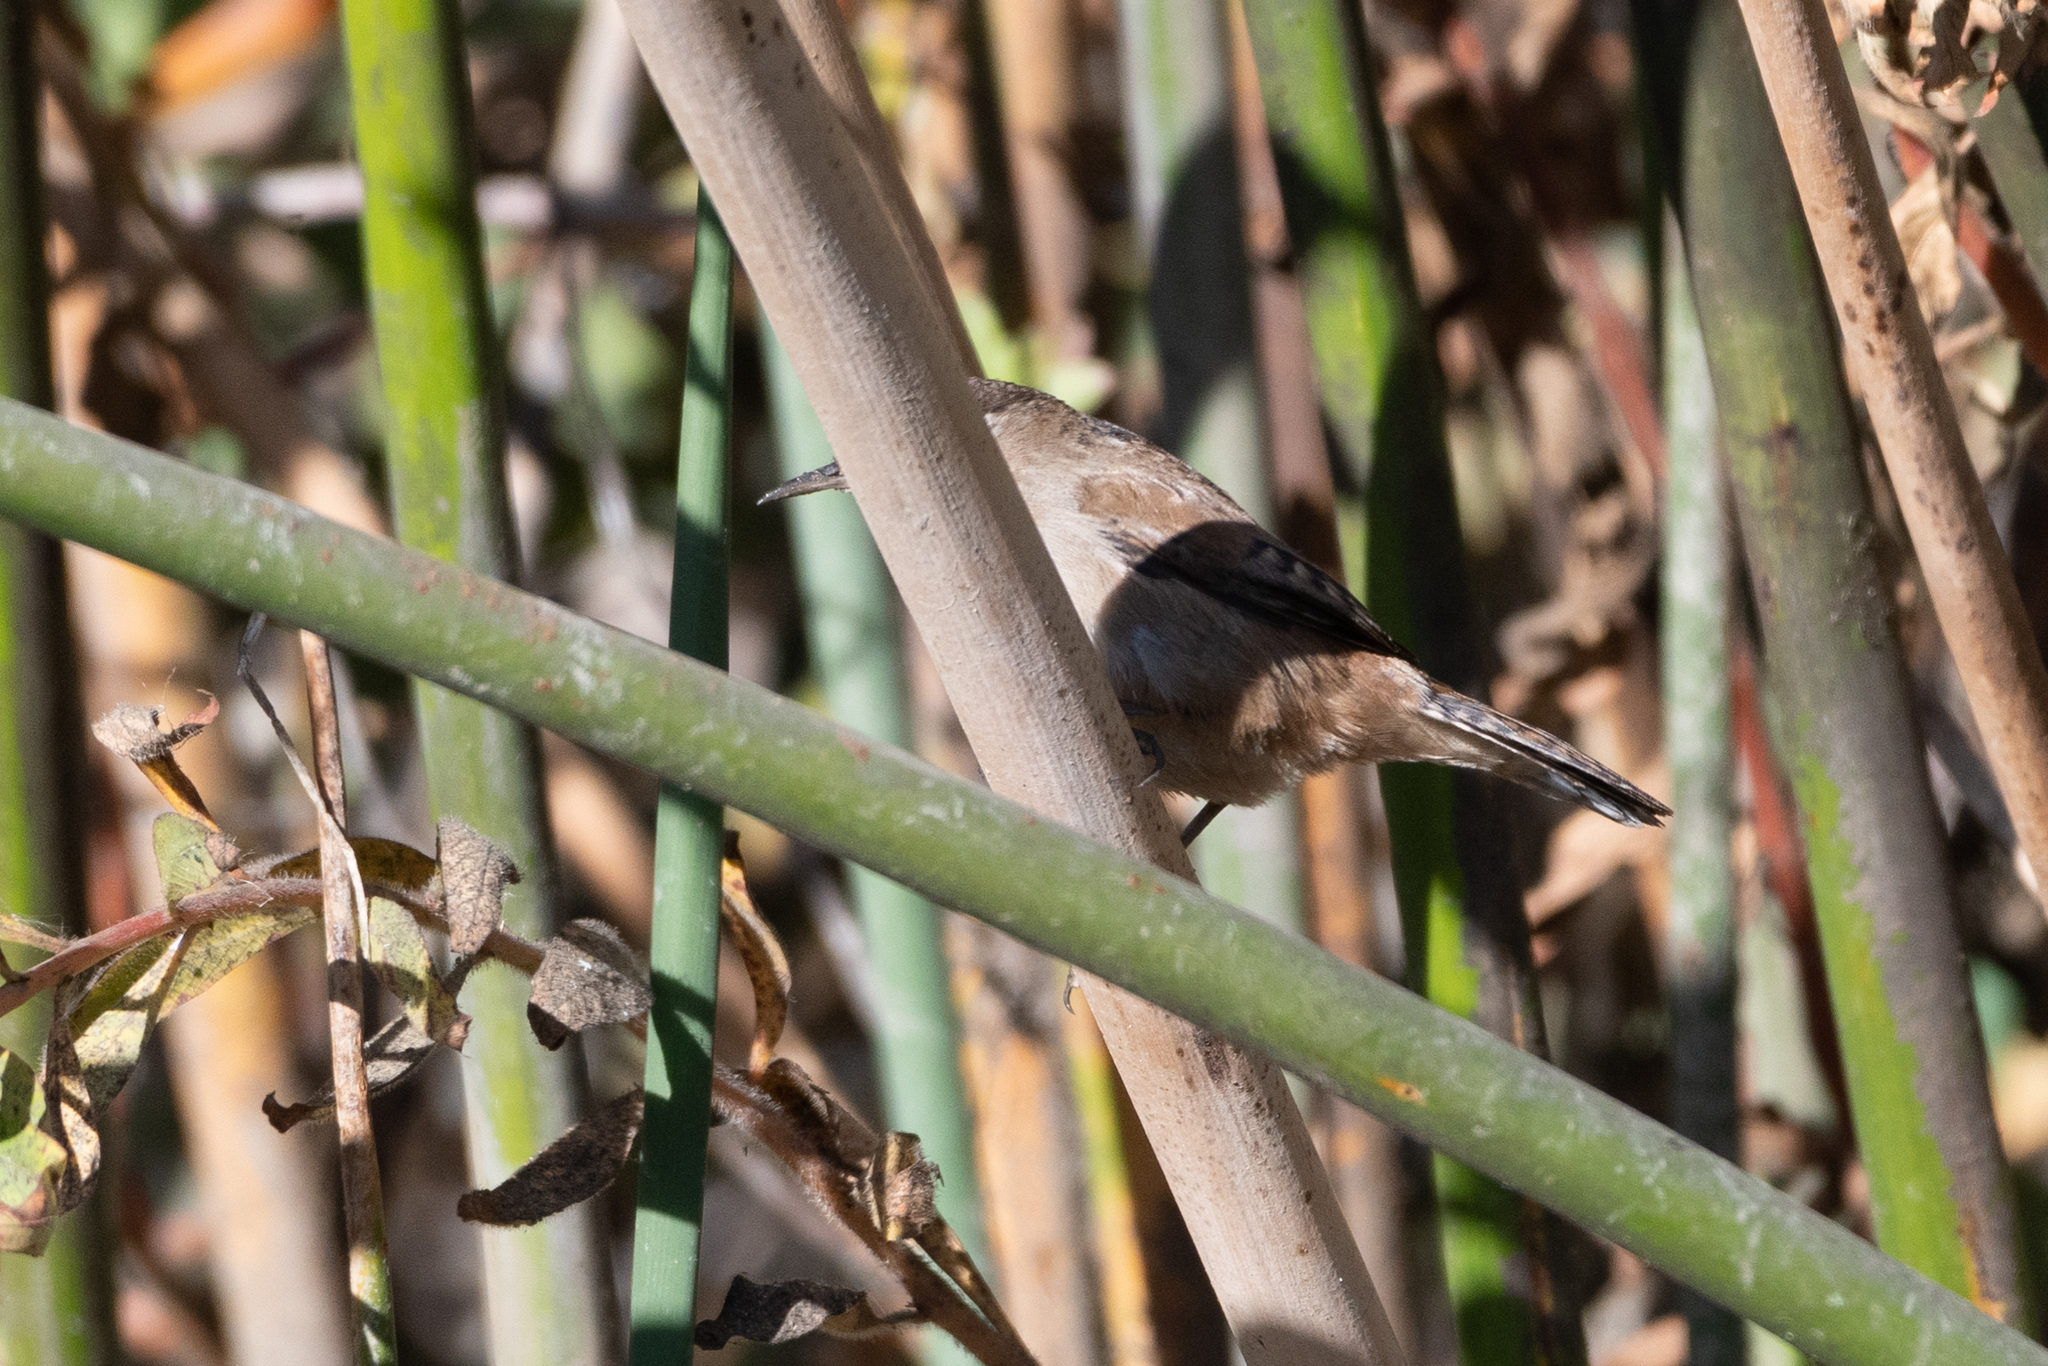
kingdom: Animalia
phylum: Chordata
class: Aves
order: Passeriformes
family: Troglodytidae
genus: Cistothorus
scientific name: Cistothorus palustris
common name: Marsh wren
